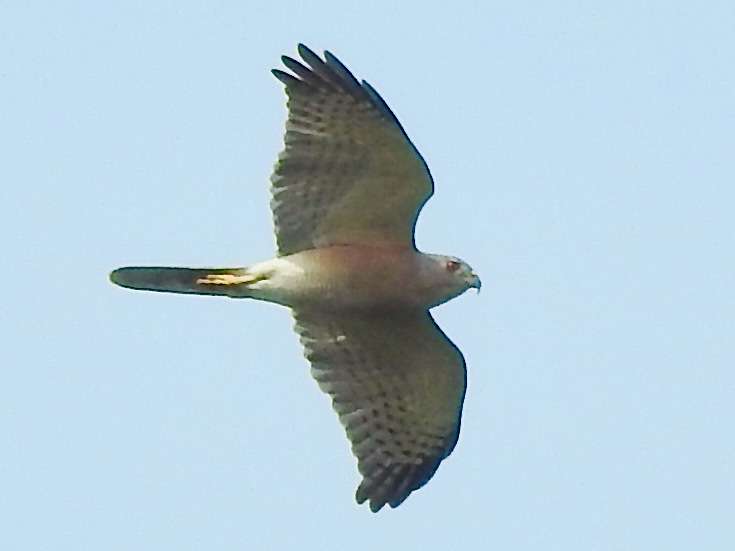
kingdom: Animalia
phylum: Chordata
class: Aves
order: Accipitriformes
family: Accipitridae
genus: Accipiter
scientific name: Accipiter badius
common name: Shikra
